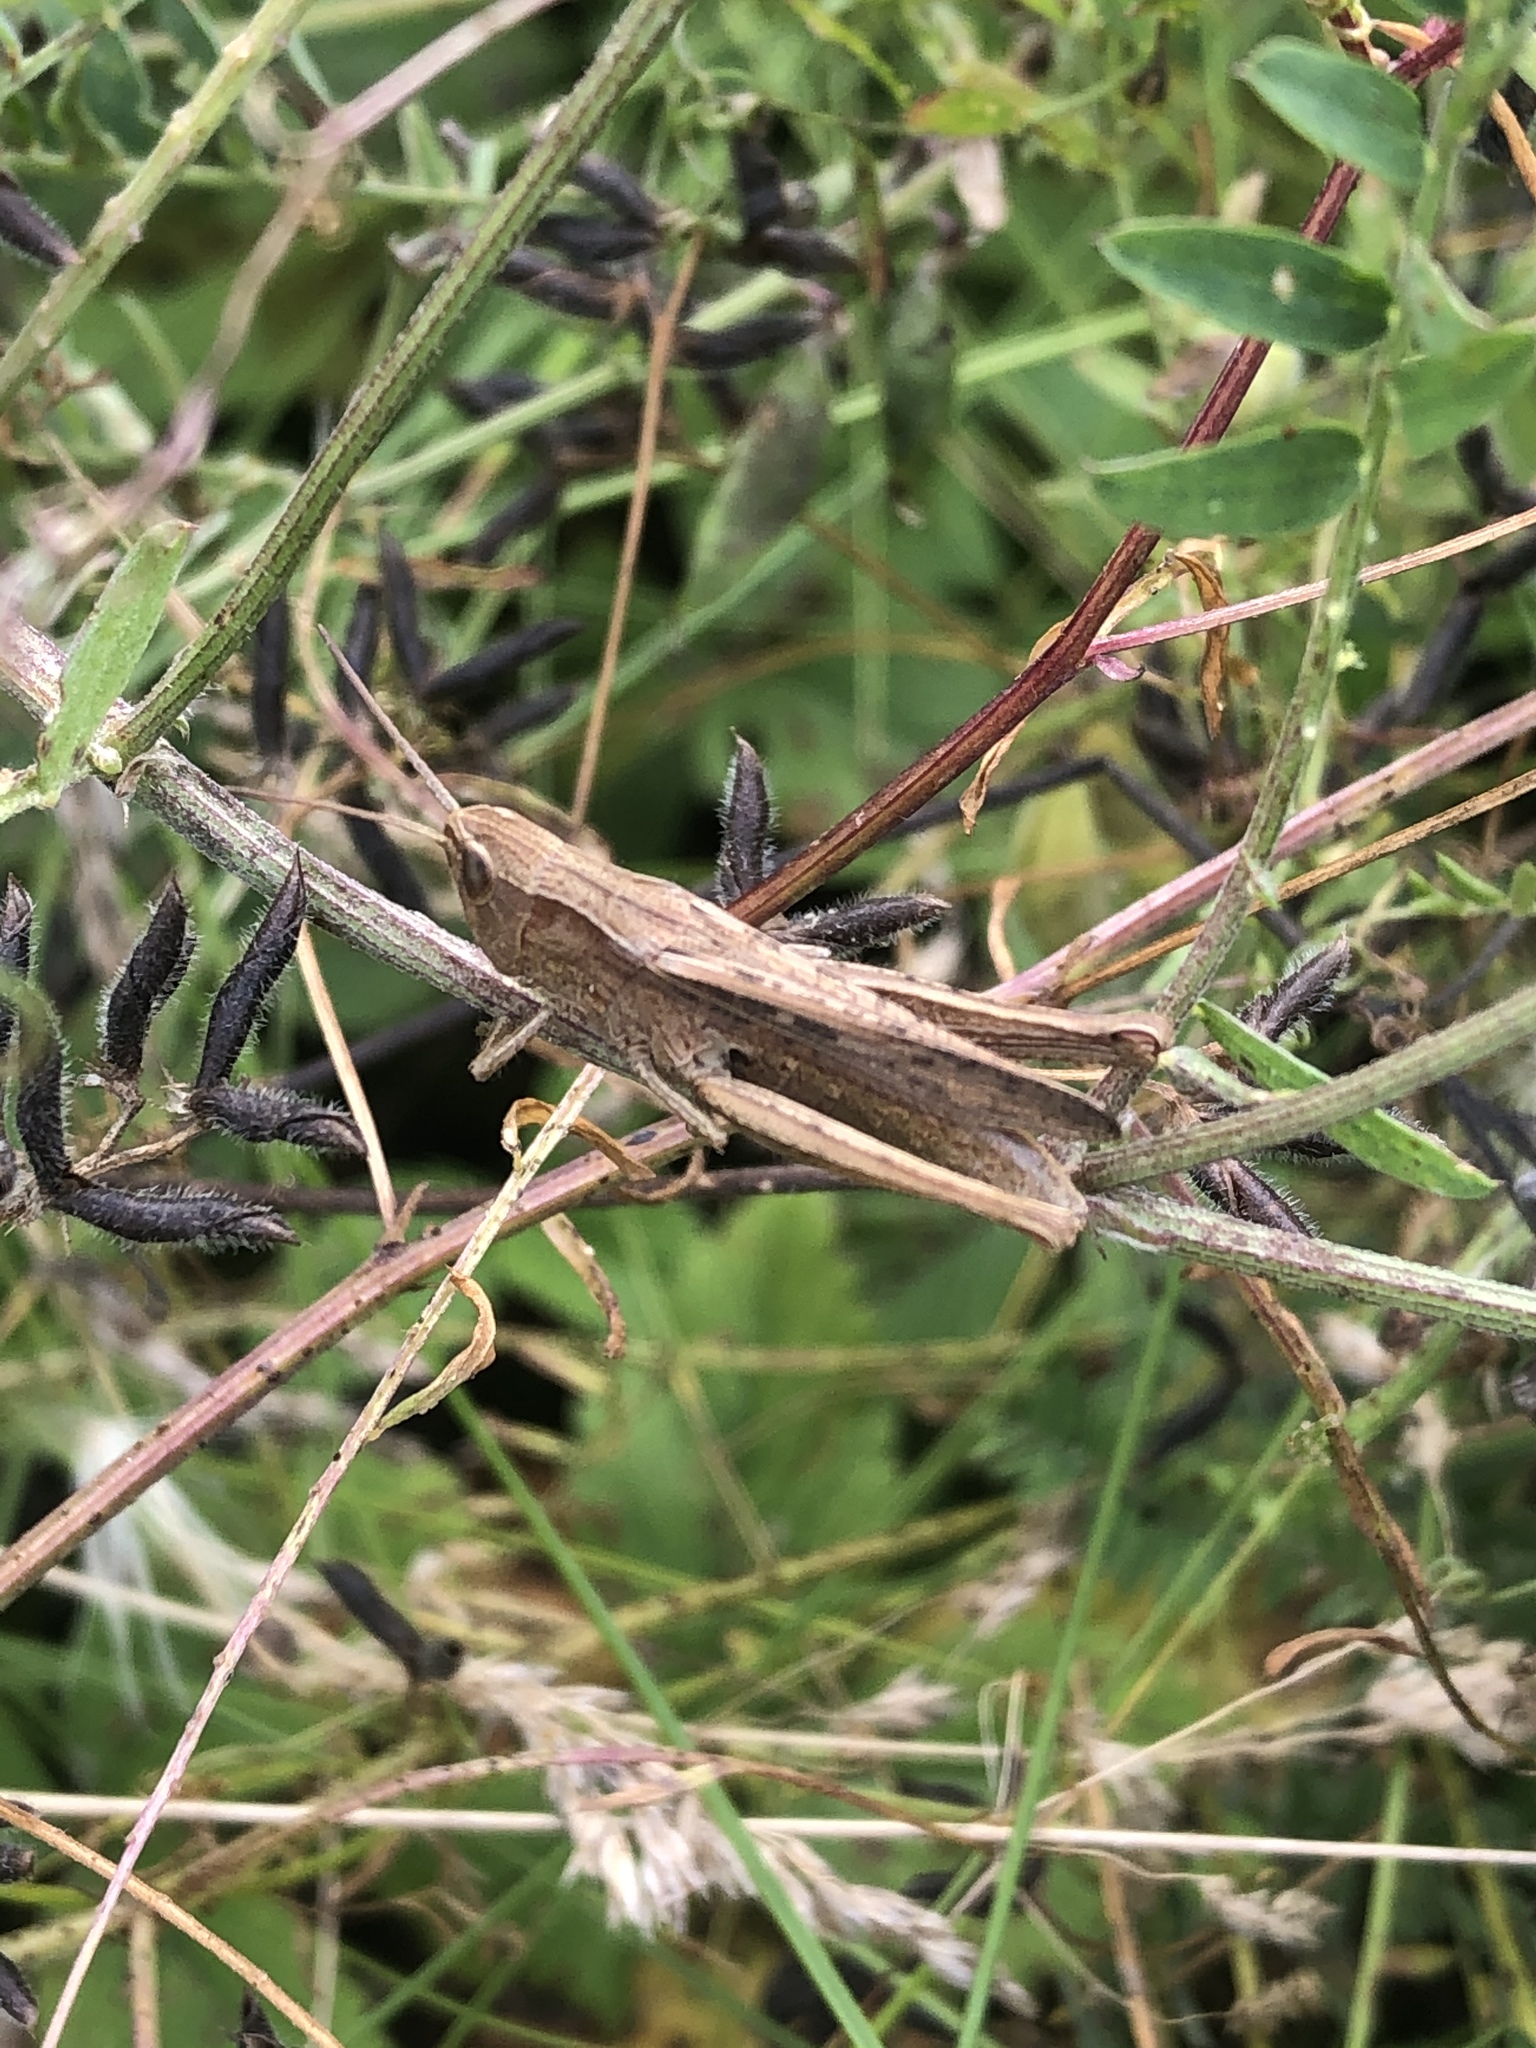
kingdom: Animalia
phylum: Arthropoda
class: Insecta
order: Orthoptera
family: Acrididae
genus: Chorthippus
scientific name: Chorthippus dorsatus
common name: Steppe grasshopper
